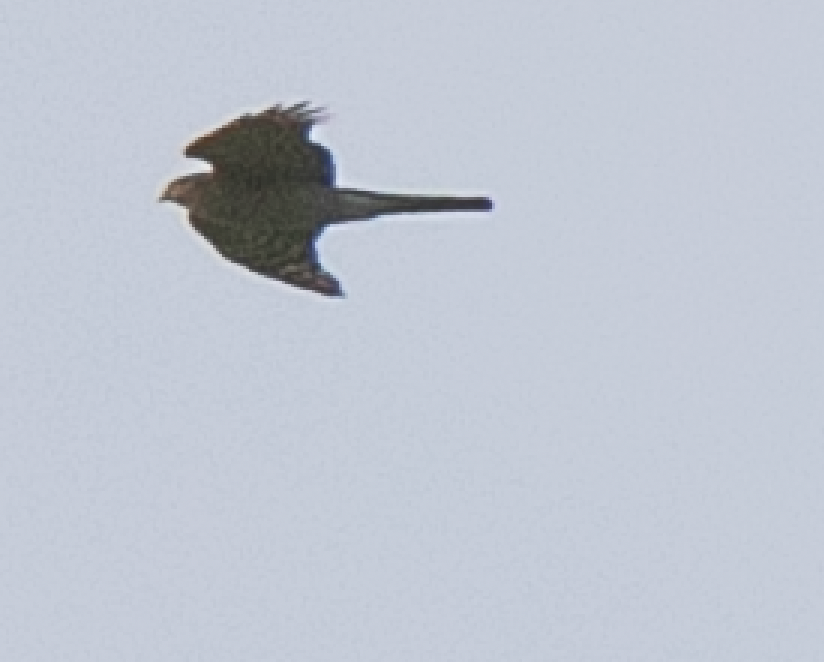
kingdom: Animalia
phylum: Chordata
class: Aves
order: Accipitriformes
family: Accipitridae
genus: Accipiter
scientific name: Accipiter nisus
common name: Eurasian sparrowhawk
